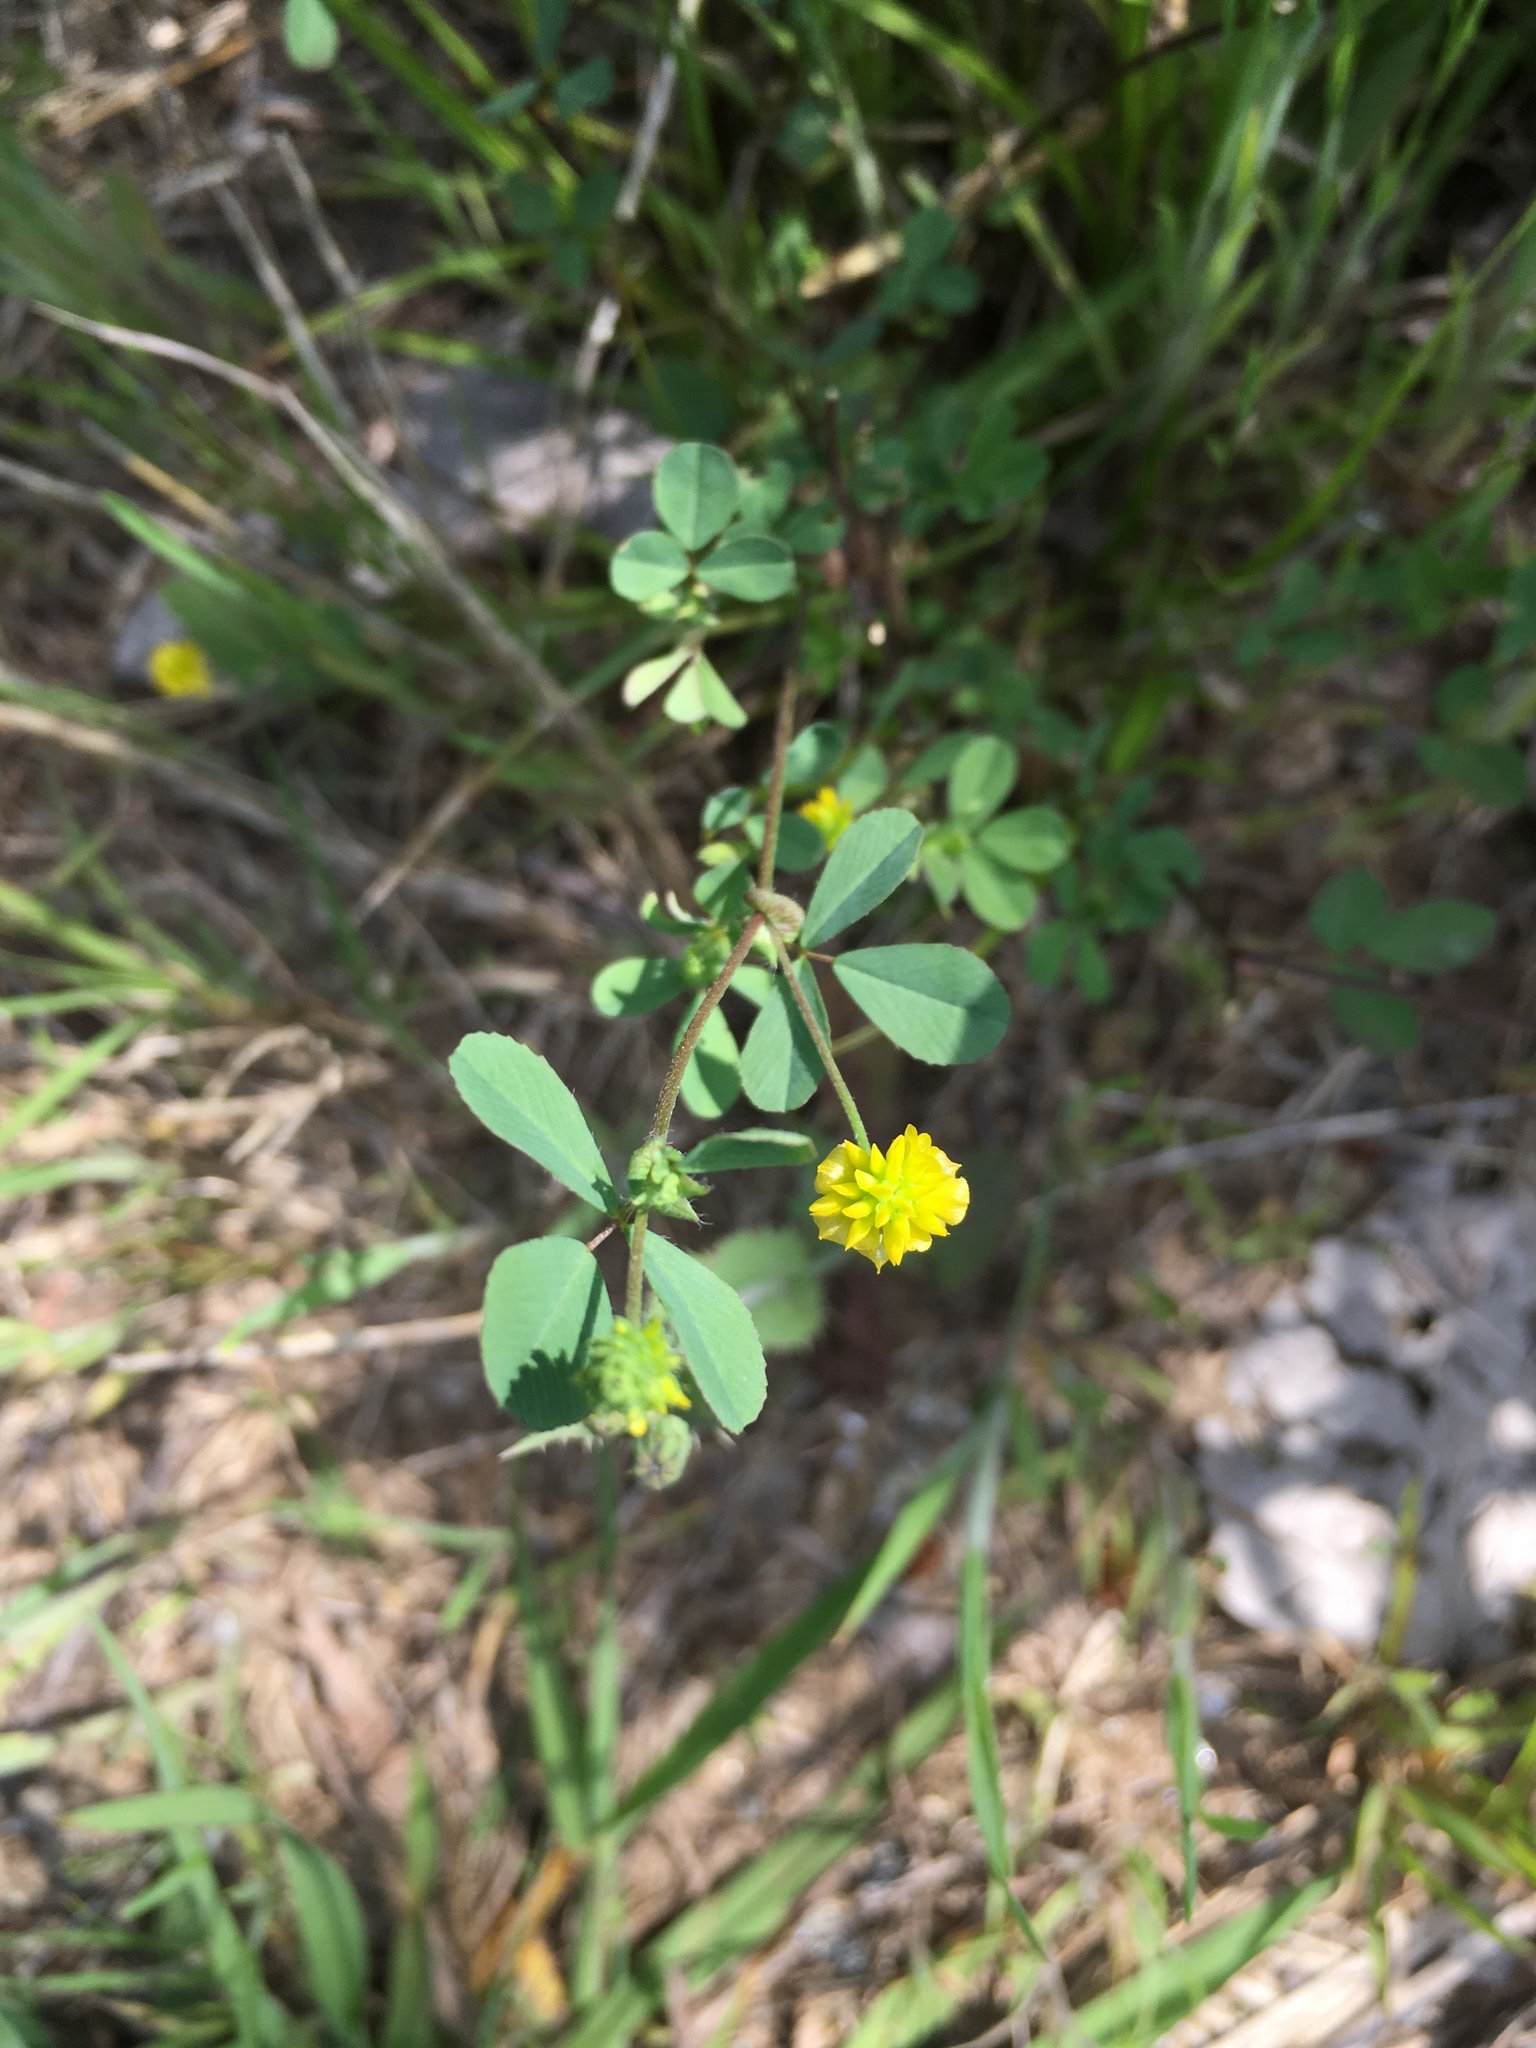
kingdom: Plantae
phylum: Tracheophyta
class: Magnoliopsida
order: Fabales
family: Fabaceae
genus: Trifolium
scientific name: Trifolium campestre
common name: Field clover
